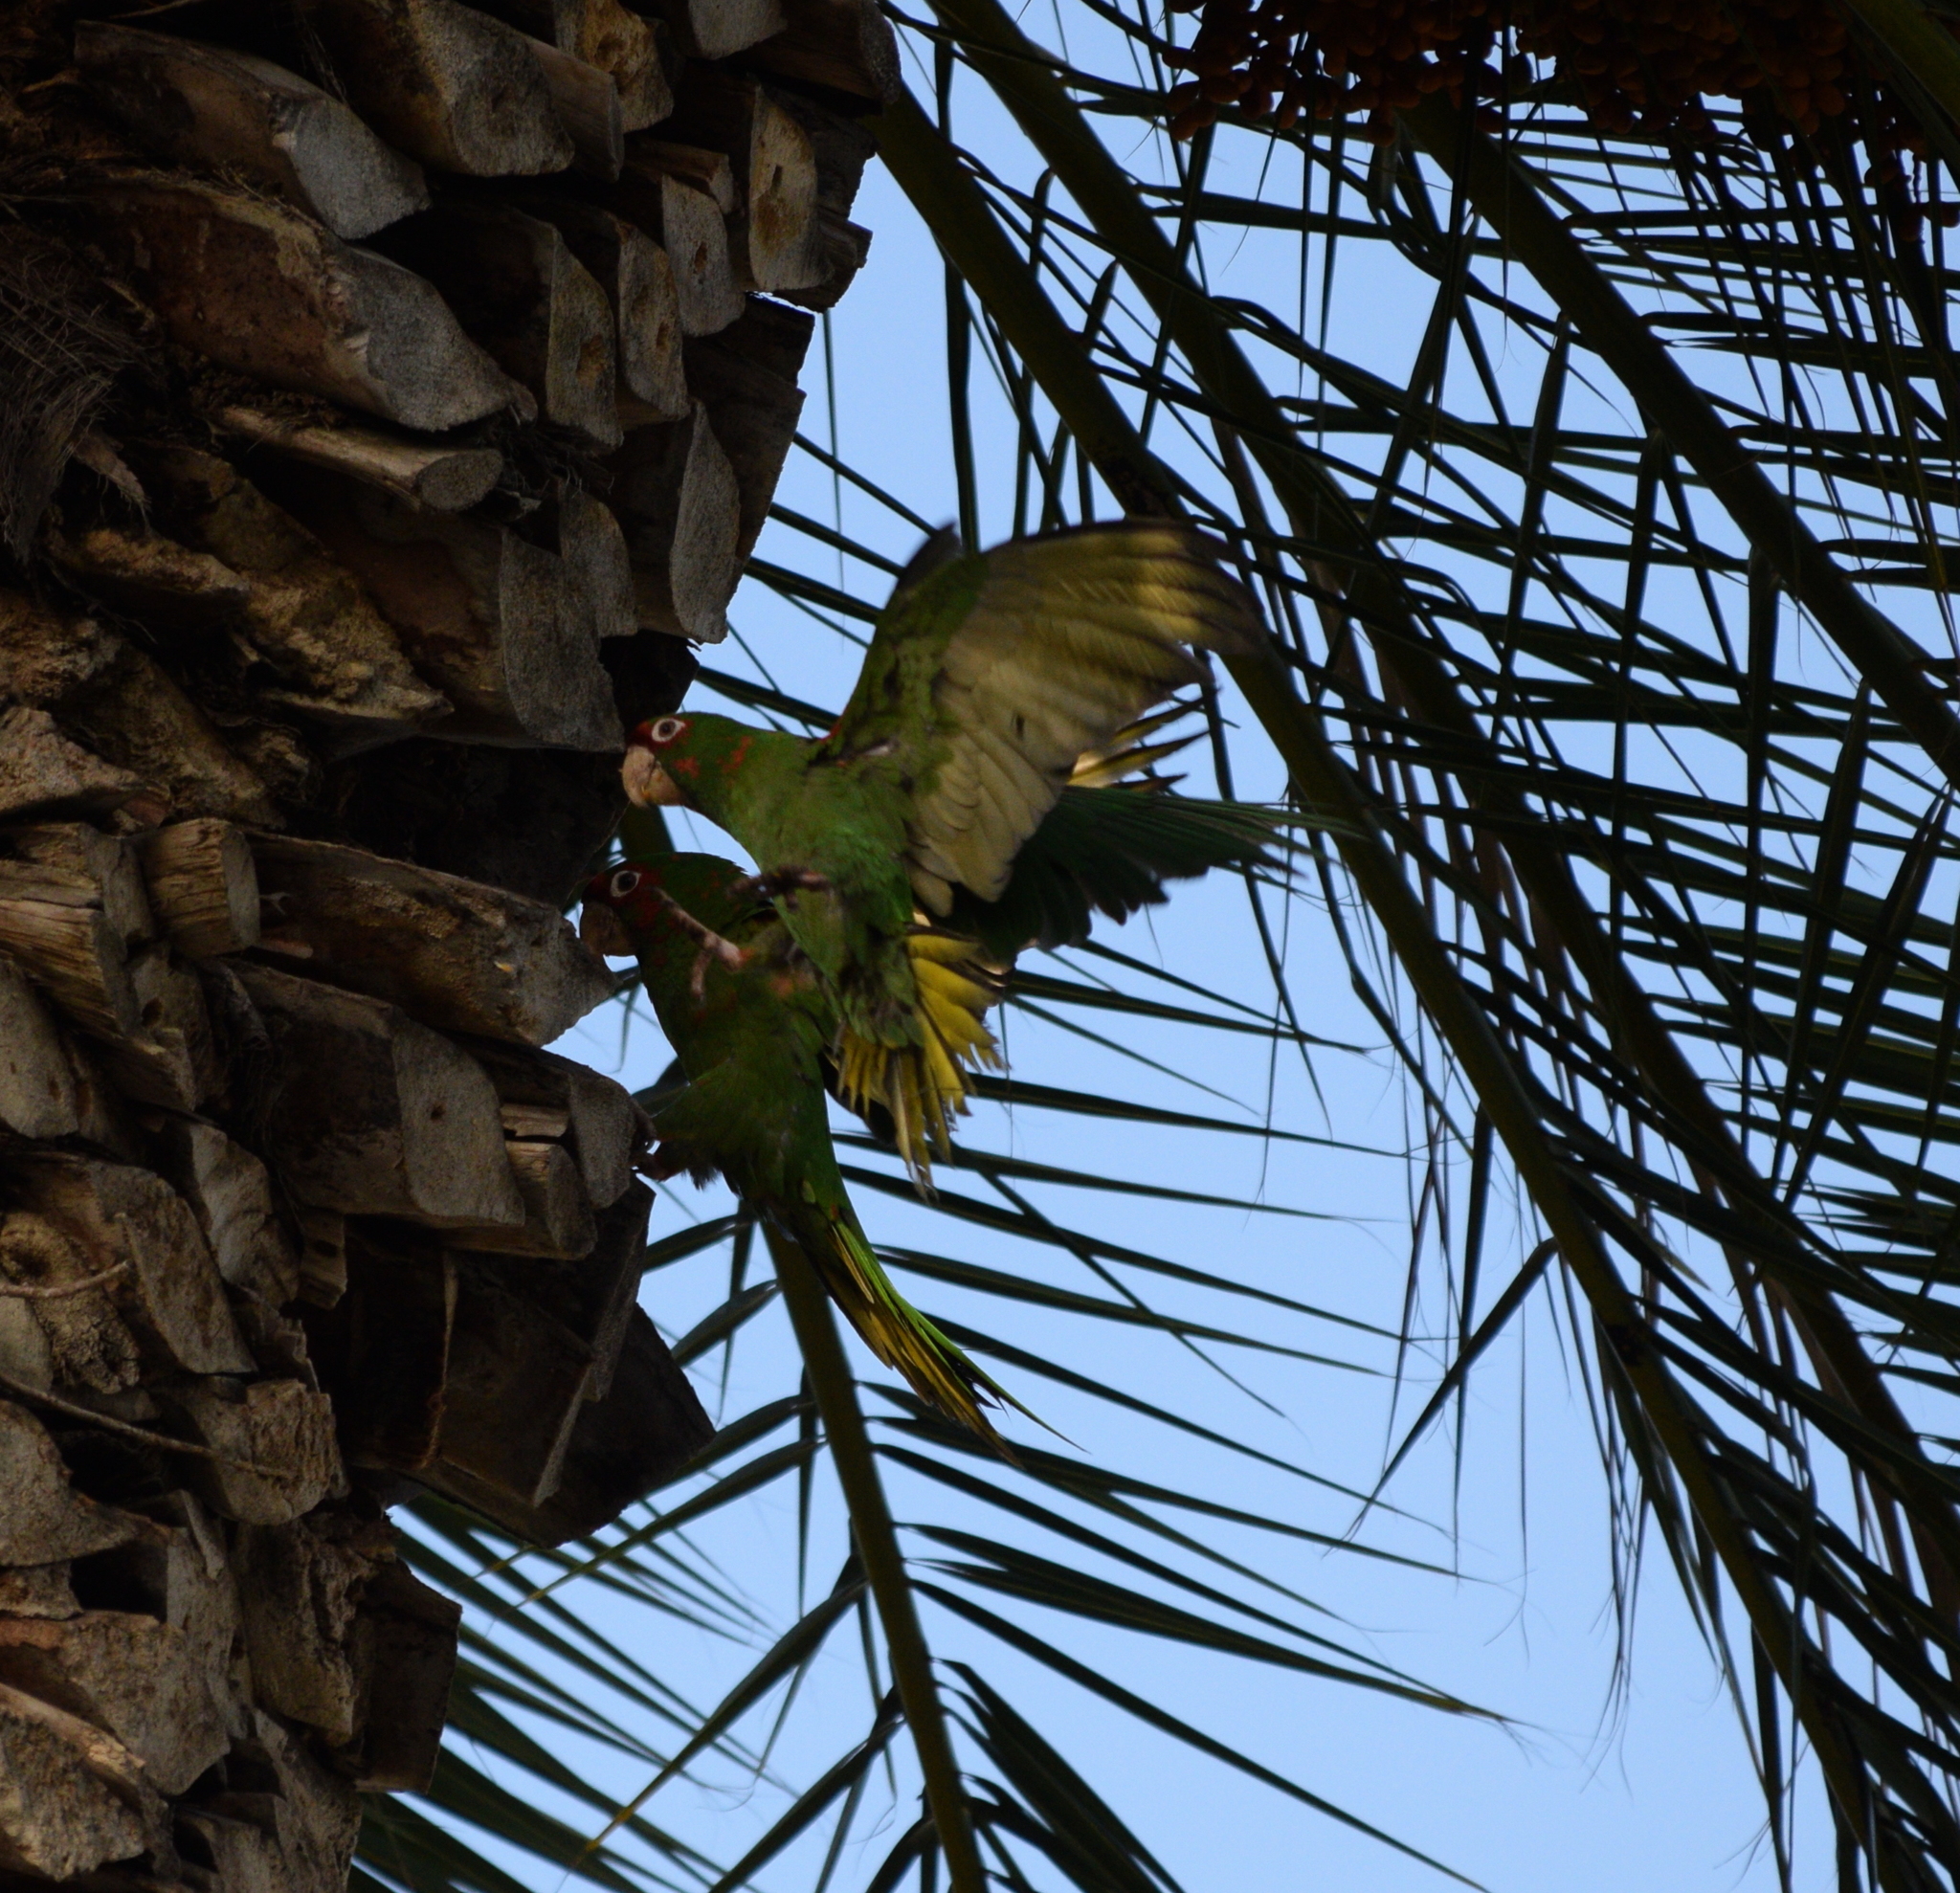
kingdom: Animalia
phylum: Chordata
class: Aves
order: Psittaciformes
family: Psittacidae
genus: Aratinga
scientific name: Aratinga mitrata
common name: Mitred parakeet
